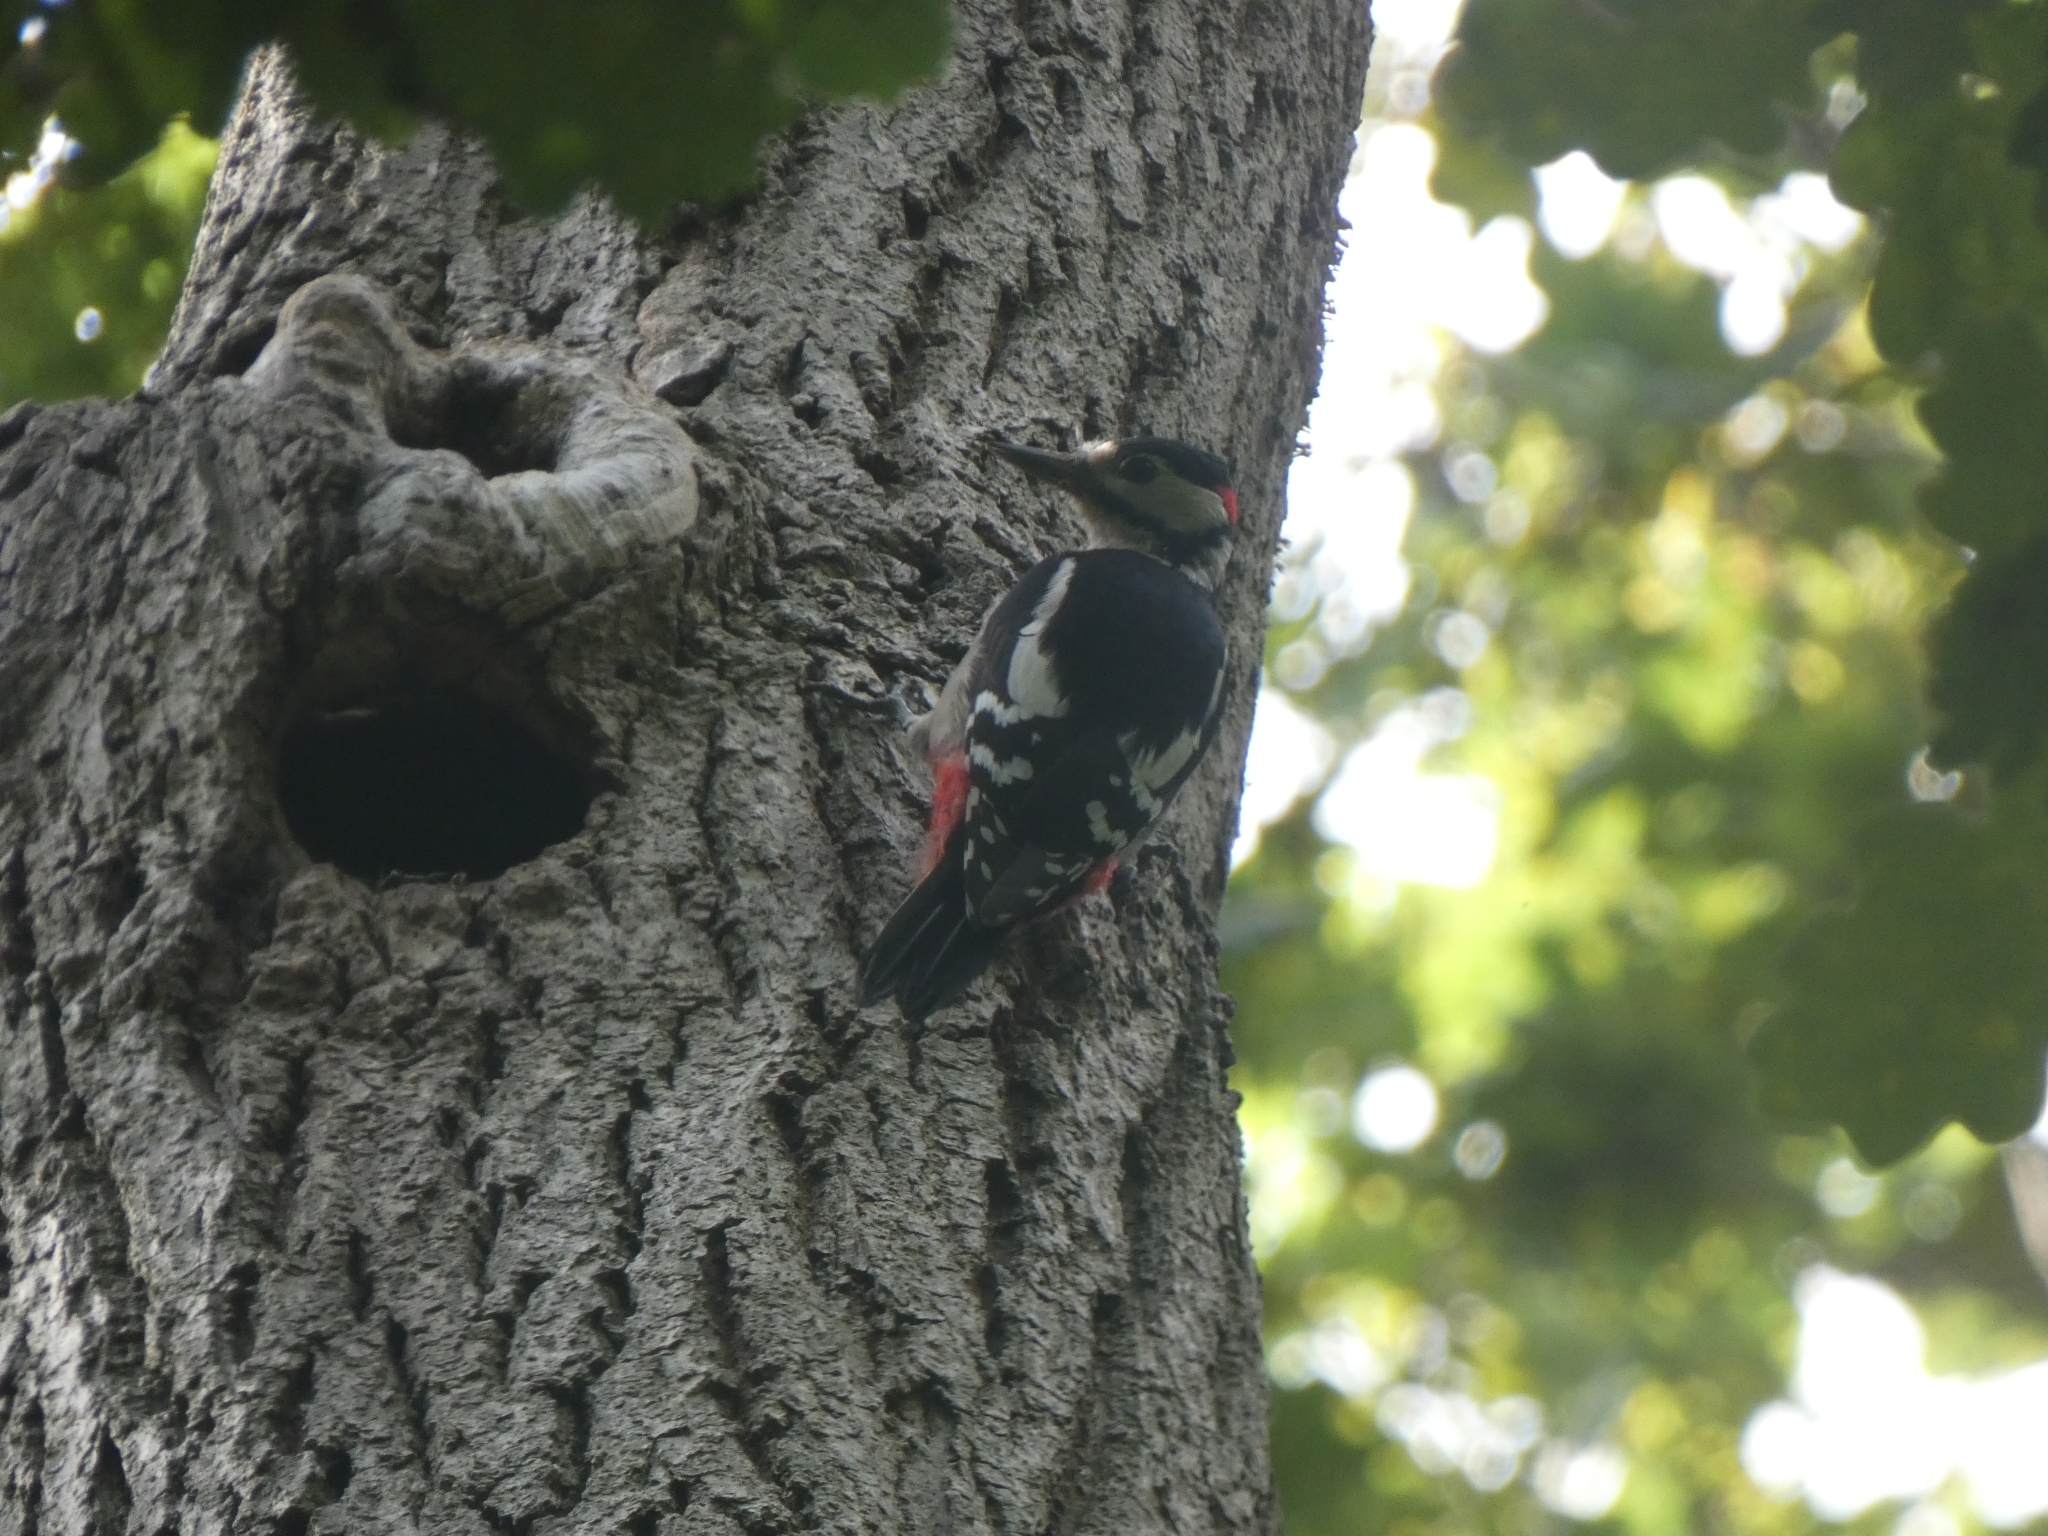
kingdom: Animalia
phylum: Chordata
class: Aves
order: Piciformes
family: Picidae
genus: Dendrocopos
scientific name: Dendrocopos major
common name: Great spotted woodpecker
